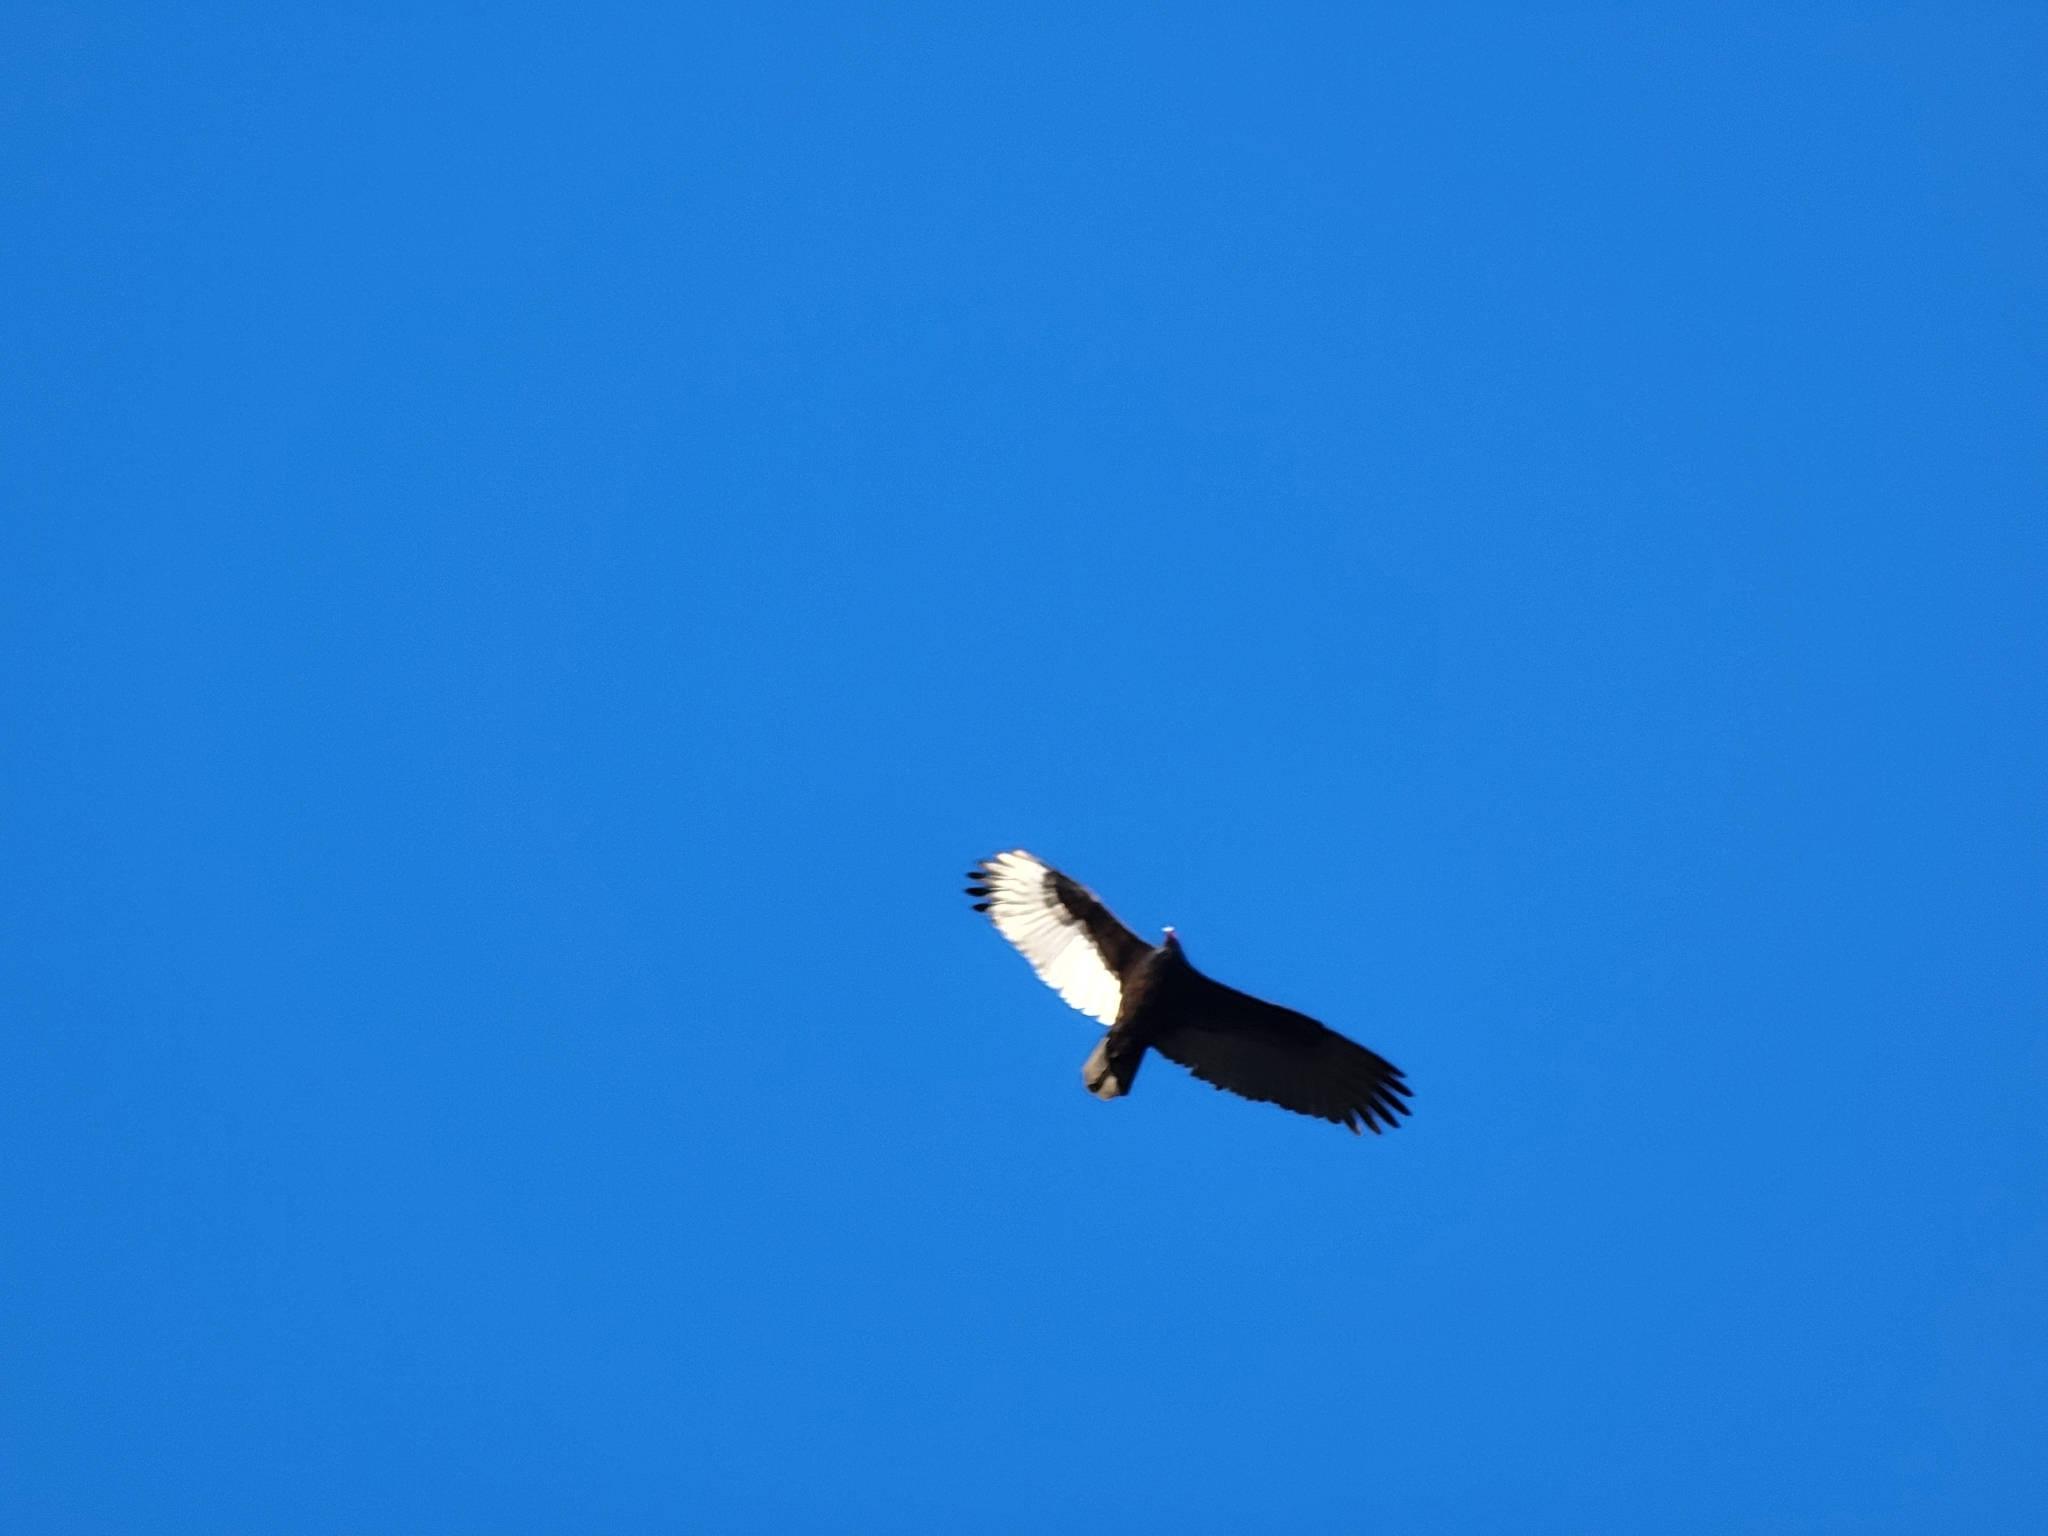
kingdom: Animalia
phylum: Chordata
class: Aves
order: Accipitriformes
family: Cathartidae
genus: Cathartes
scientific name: Cathartes aura
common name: Turkey vulture
